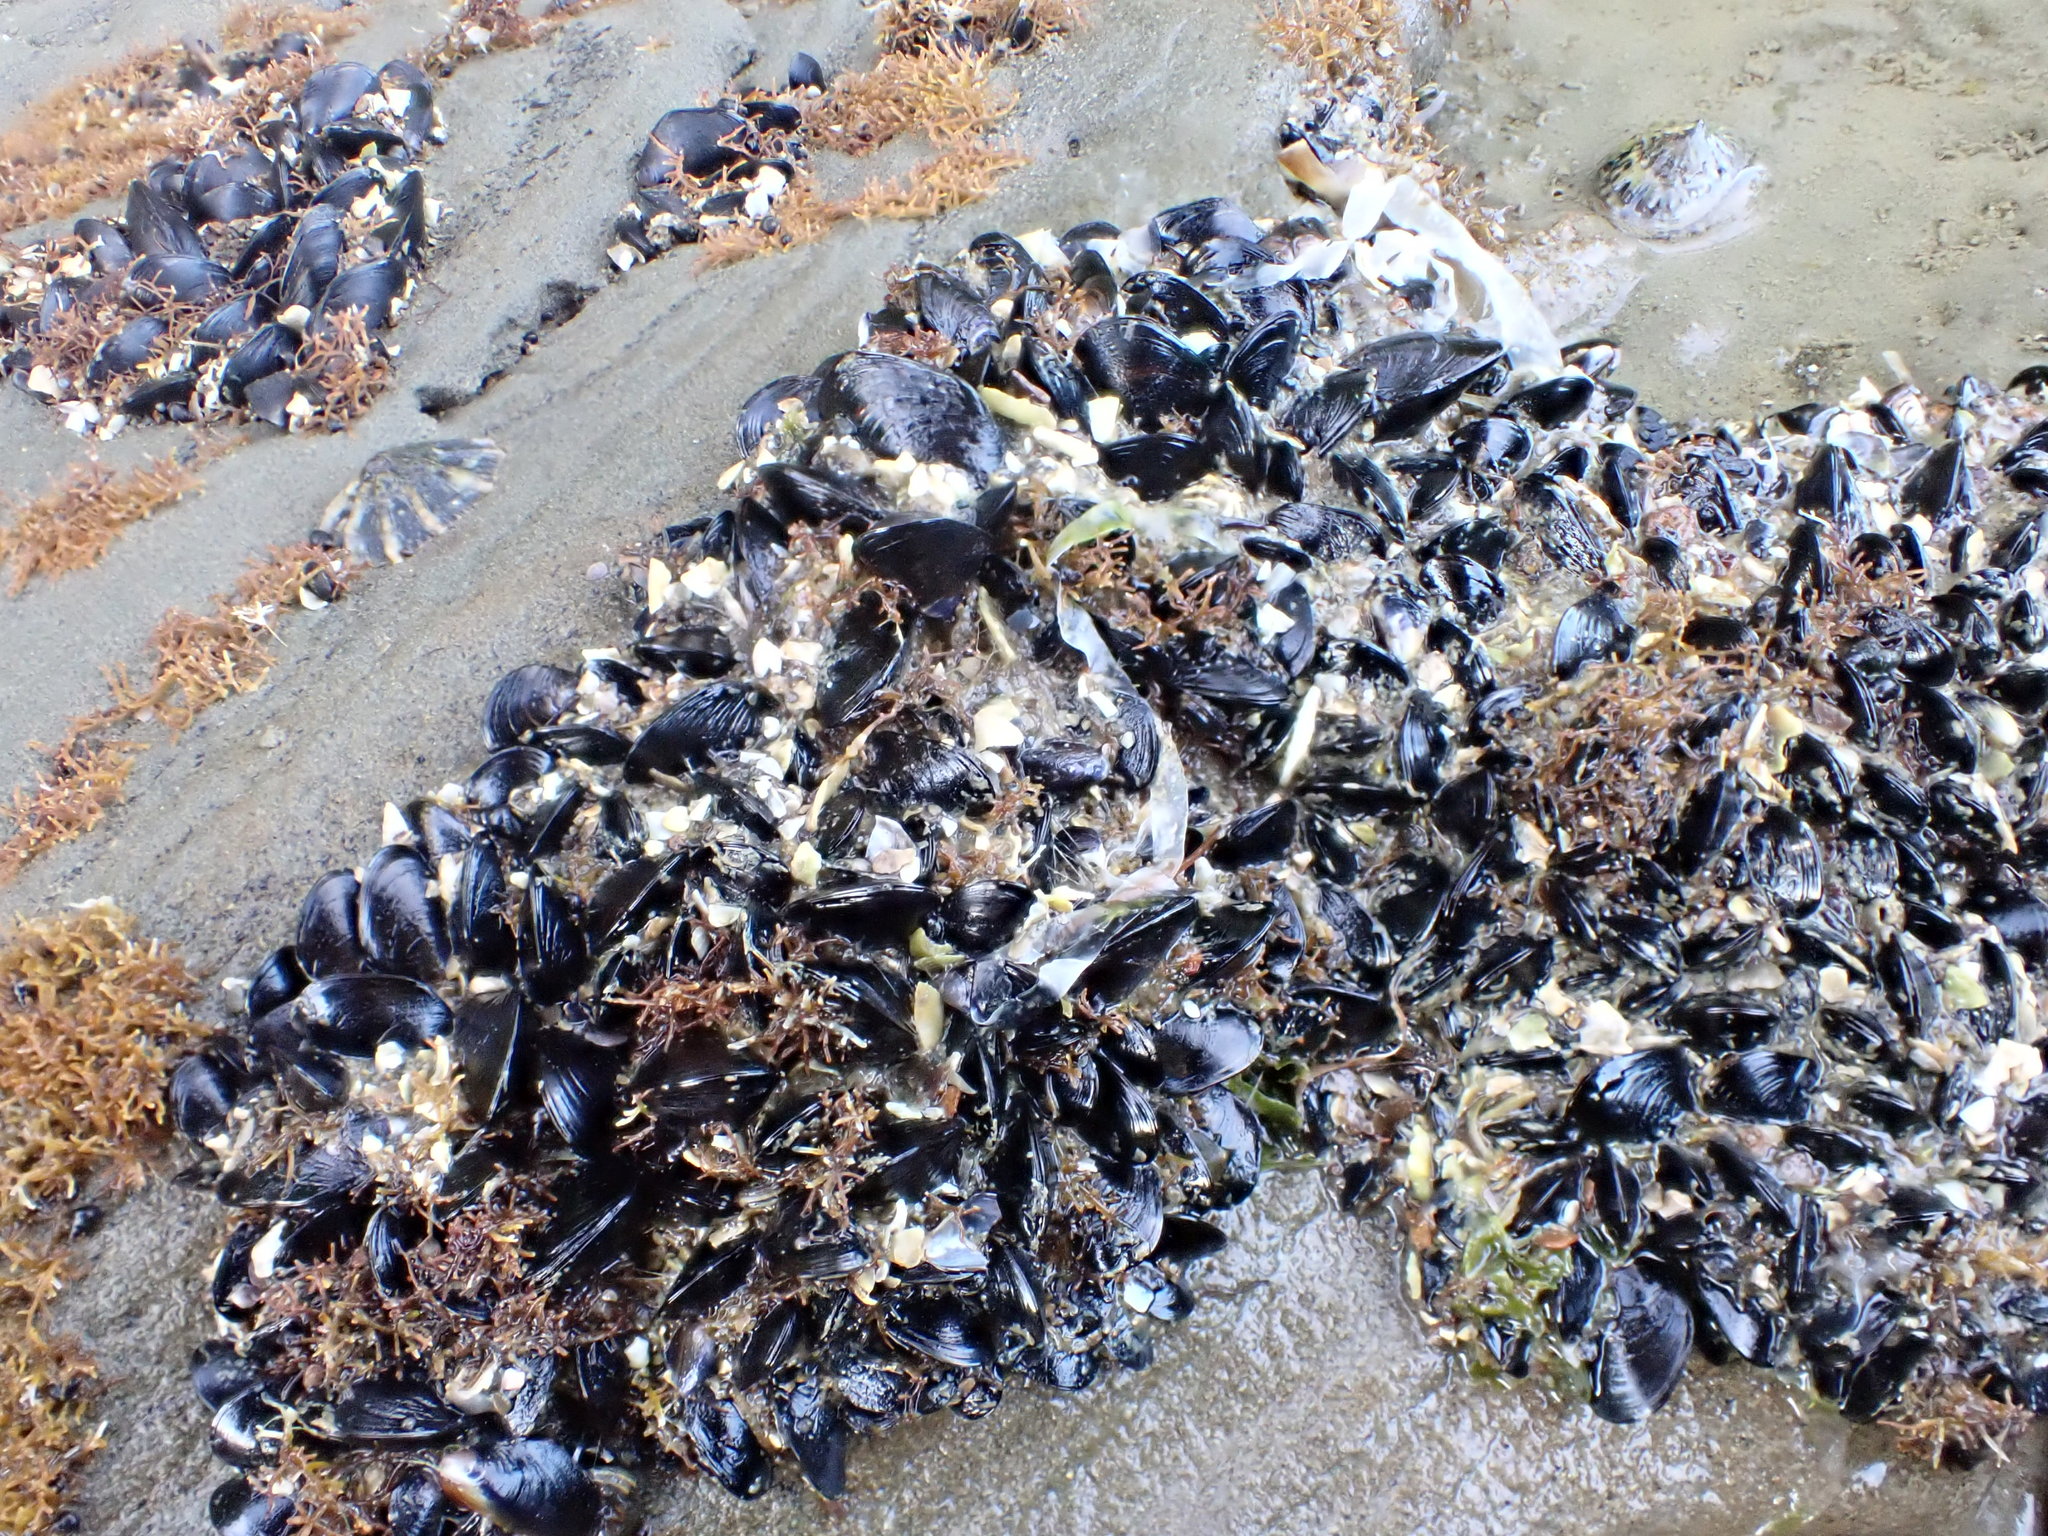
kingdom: Animalia
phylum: Mollusca
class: Bivalvia
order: Mytilida
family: Mytilidae
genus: Xenostrobus
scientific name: Xenostrobus neozelanicus
